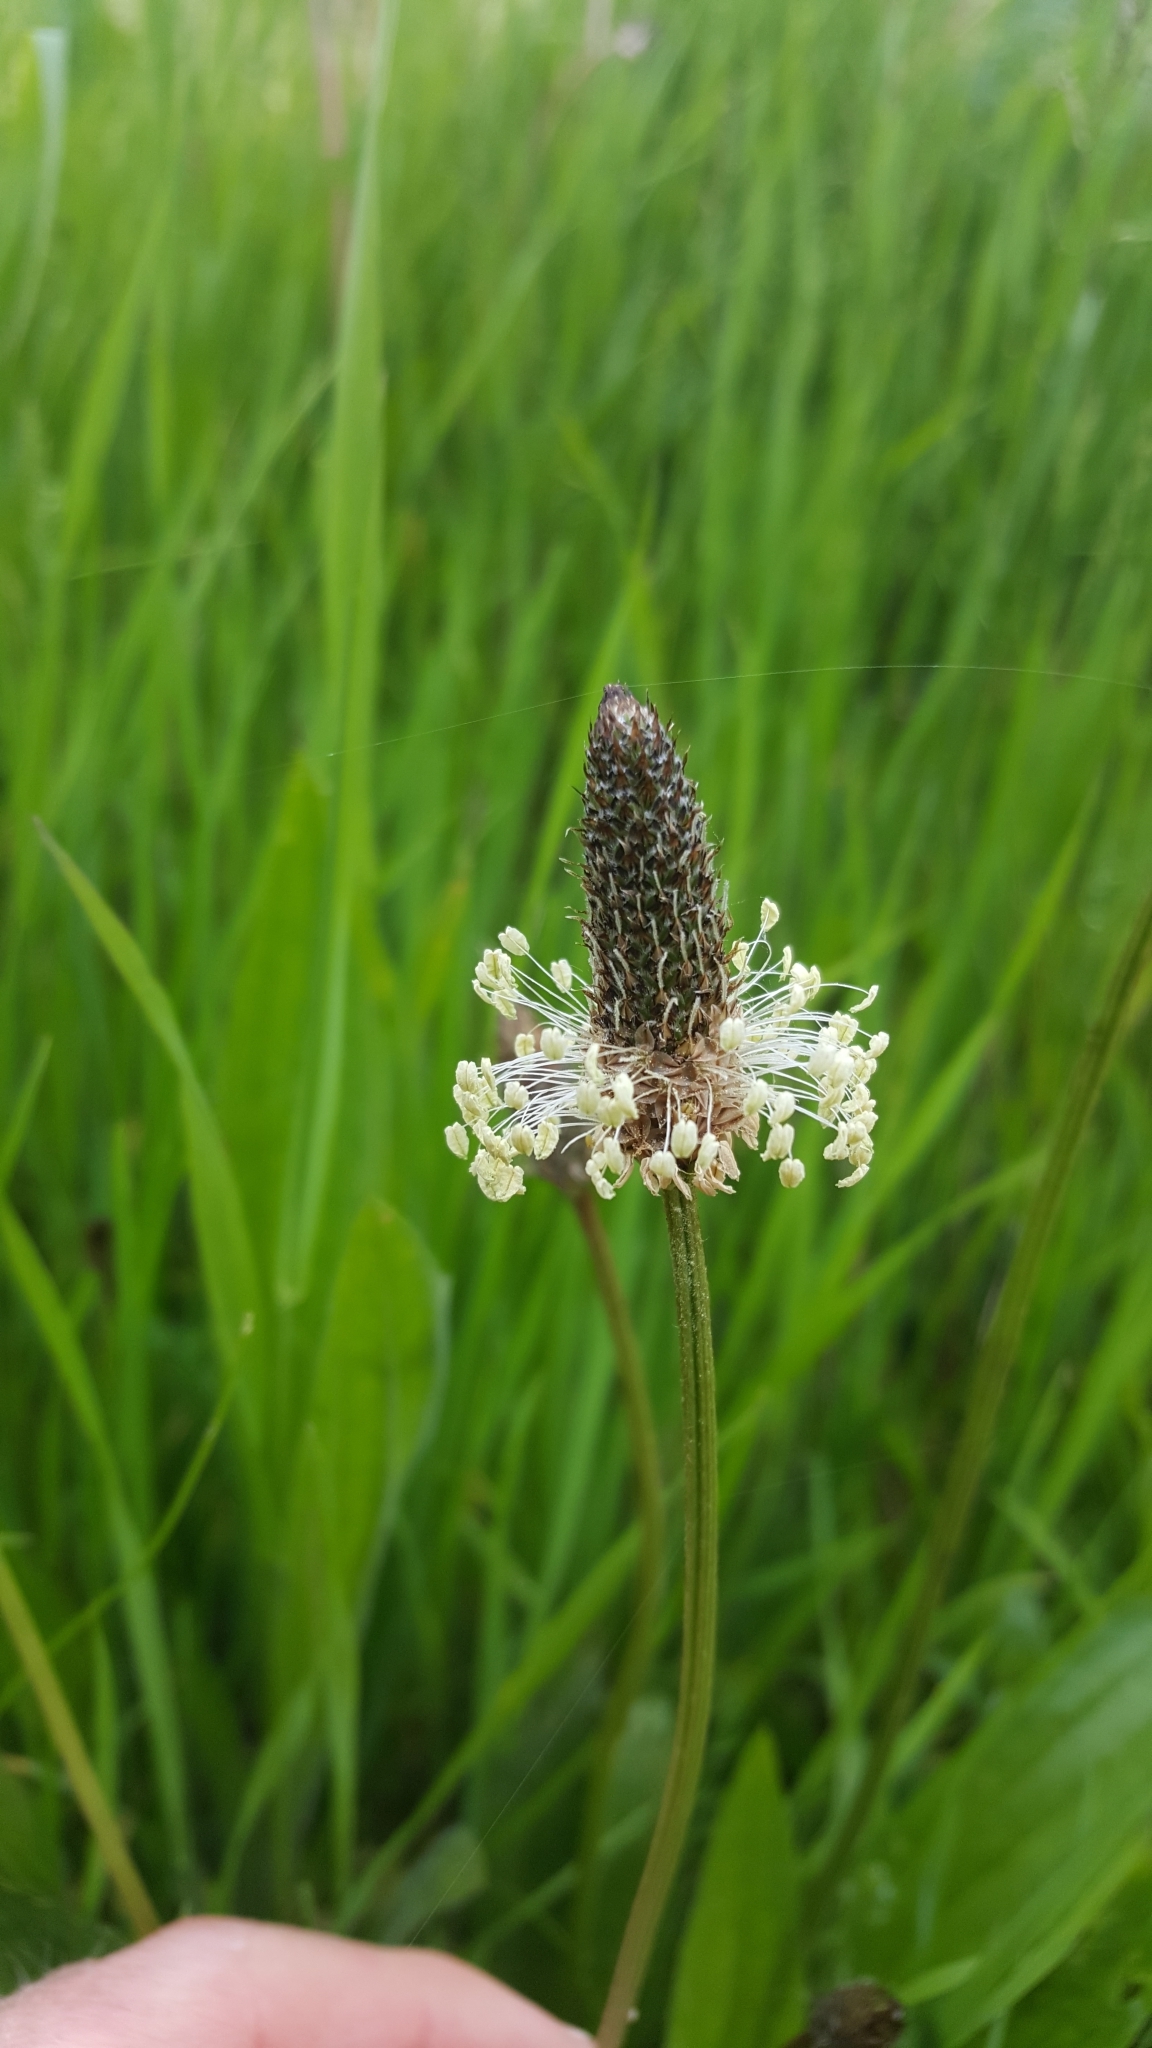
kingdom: Plantae
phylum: Tracheophyta
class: Magnoliopsida
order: Lamiales
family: Plantaginaceae
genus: Plantago
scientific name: Plantago lanceolata
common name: Ribwort plantain
